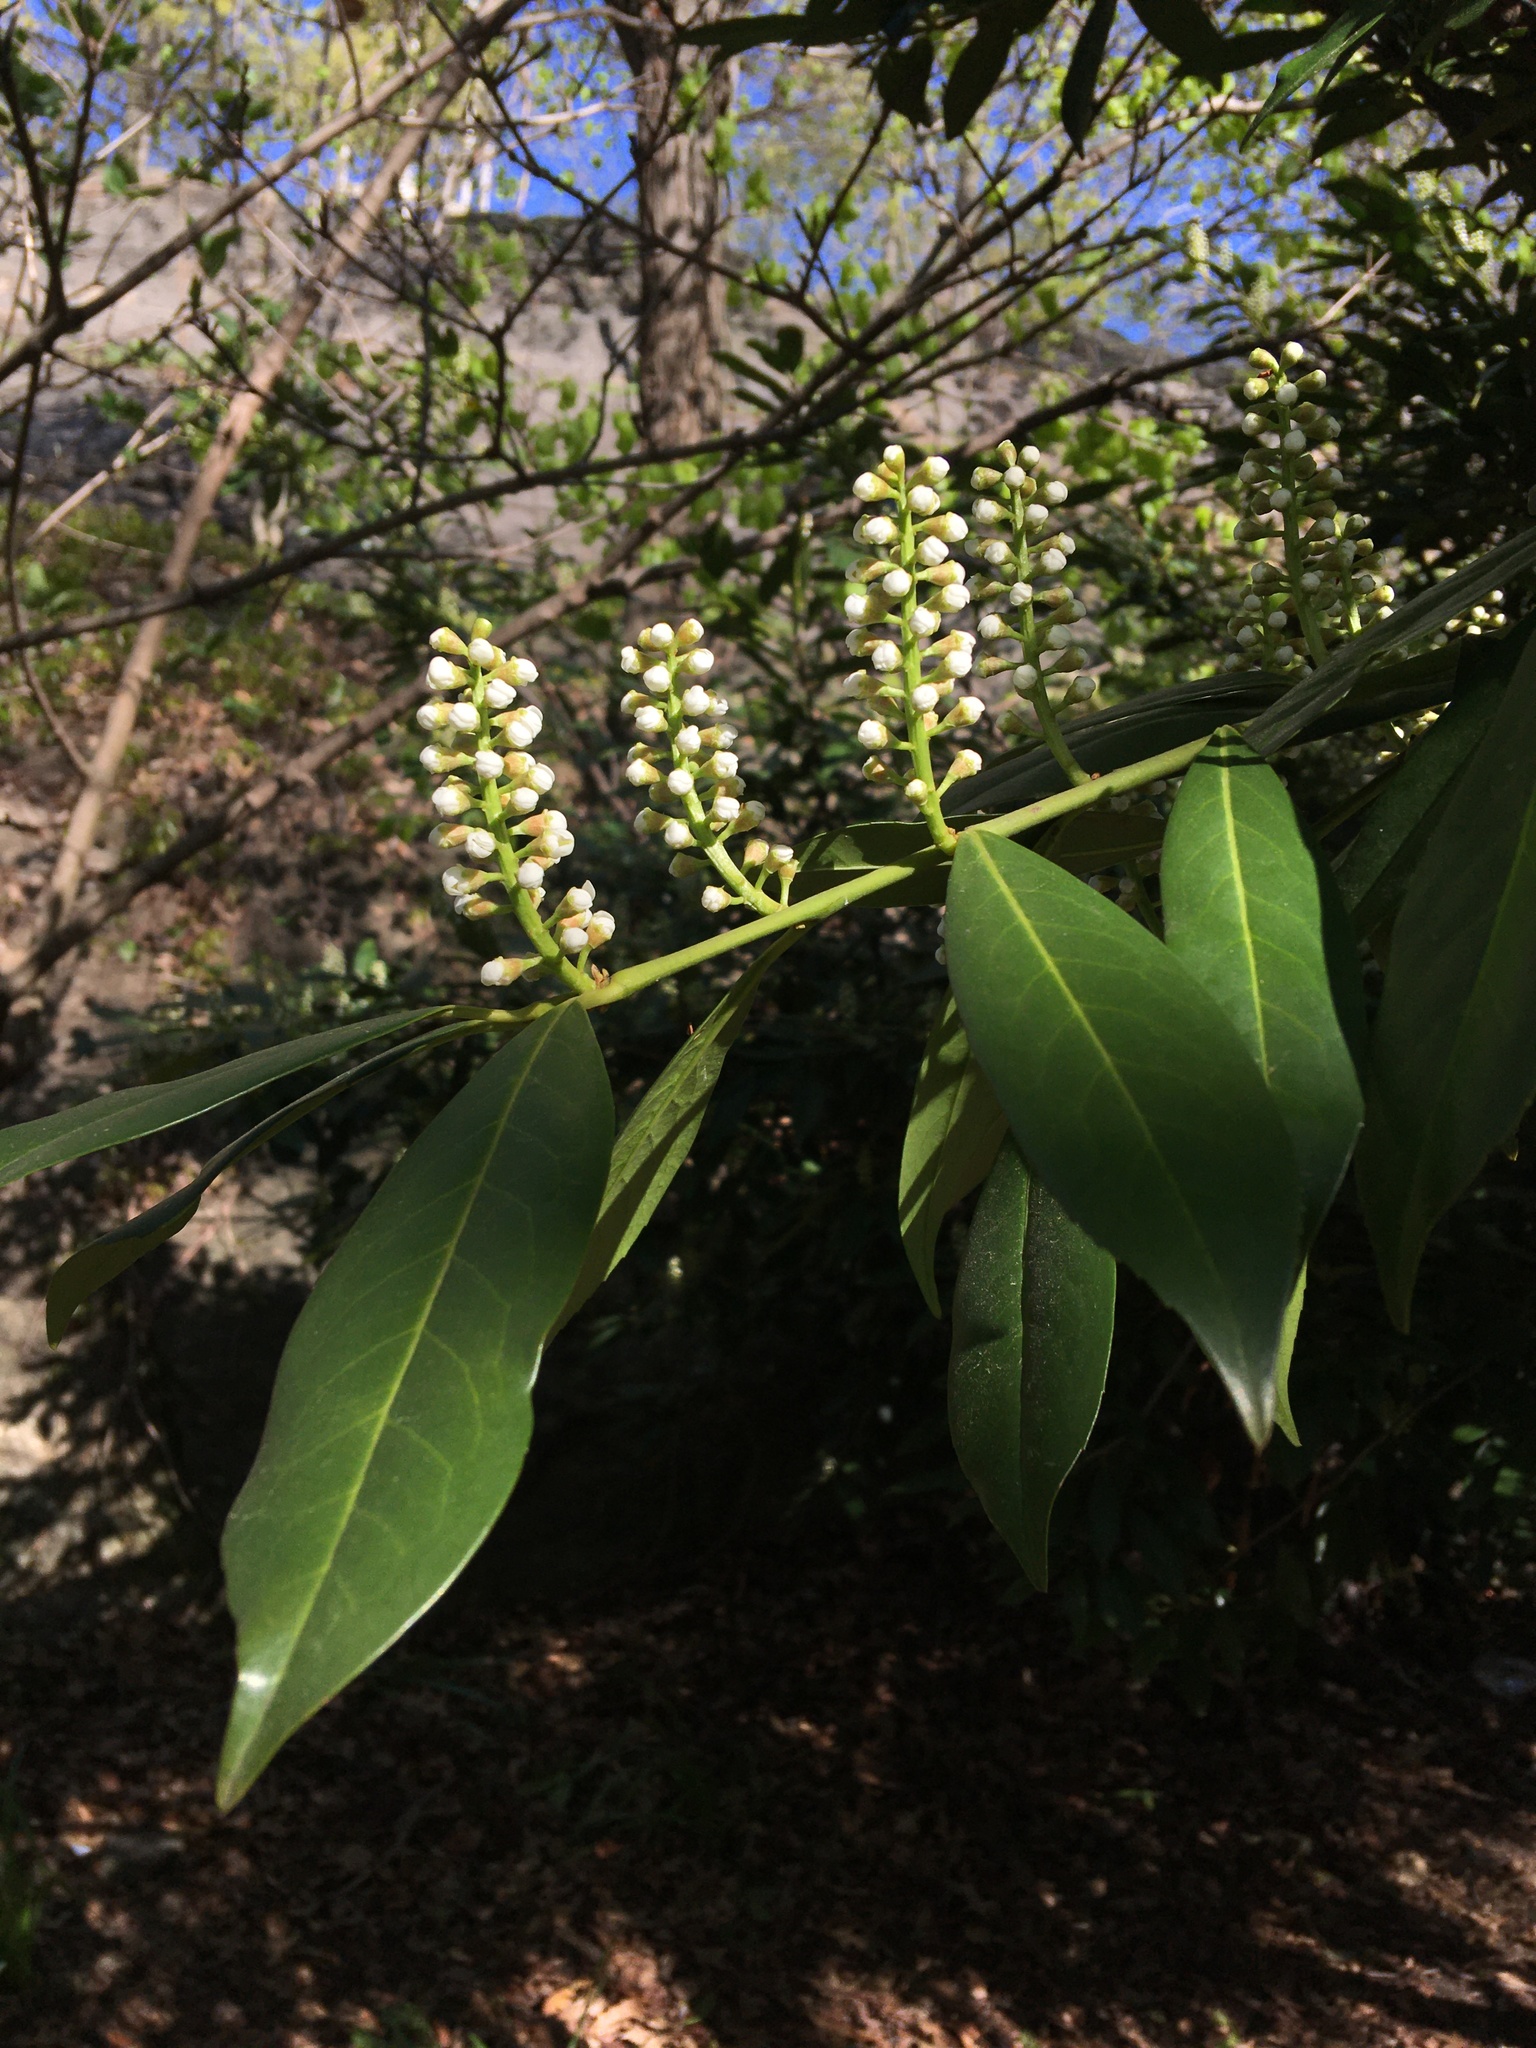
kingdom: Plantae
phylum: Tracheophyta
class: Magnoliopsida
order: Rosales
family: Rosaceae
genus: Prunus
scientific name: Prunus laurocerasus
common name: Cherry laurel
